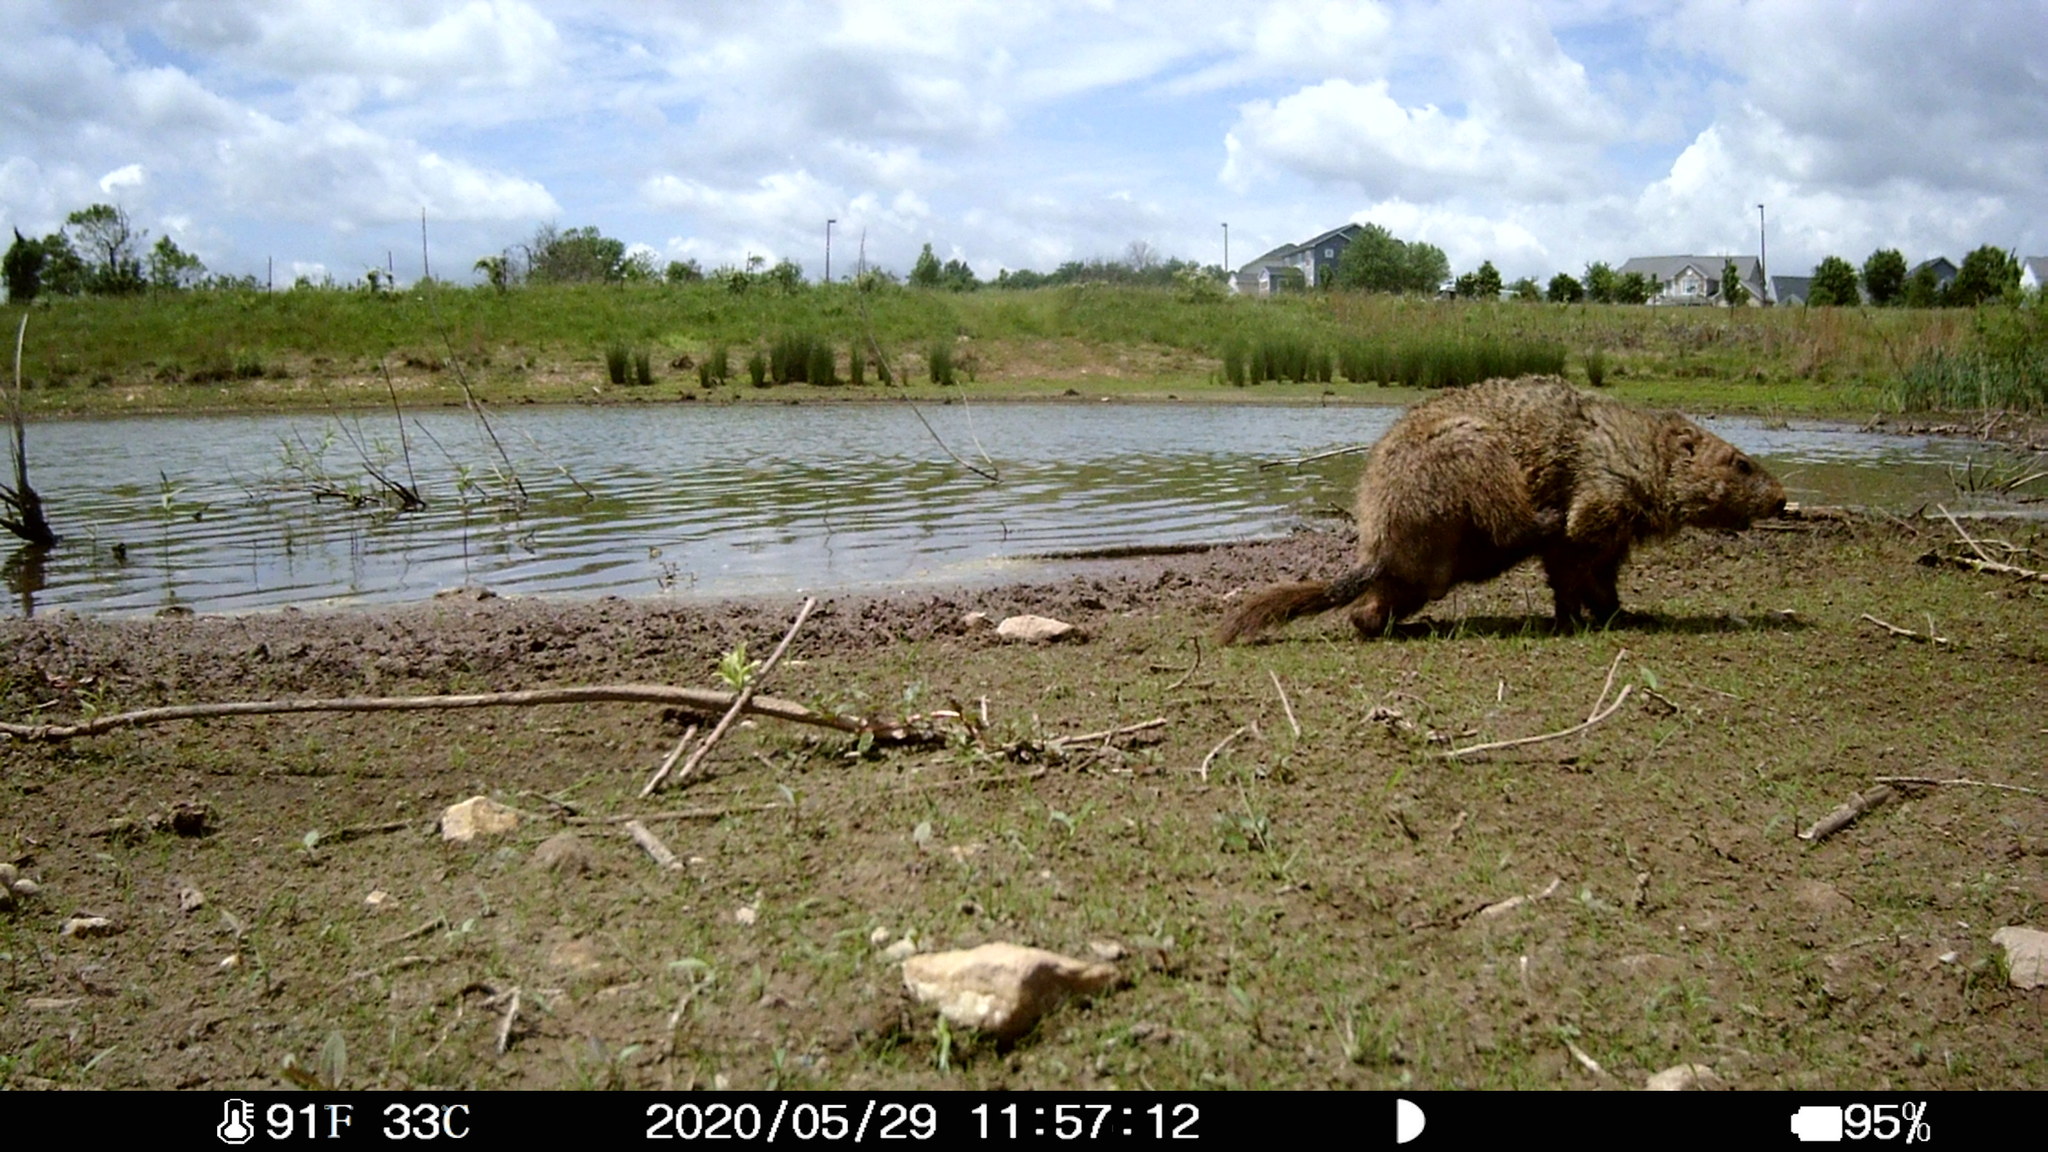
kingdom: Animalia
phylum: Chordata
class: Mammalia
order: Rodentia
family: Sciuridae
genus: Marmota
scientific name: Marmota monax
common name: Groundhog
